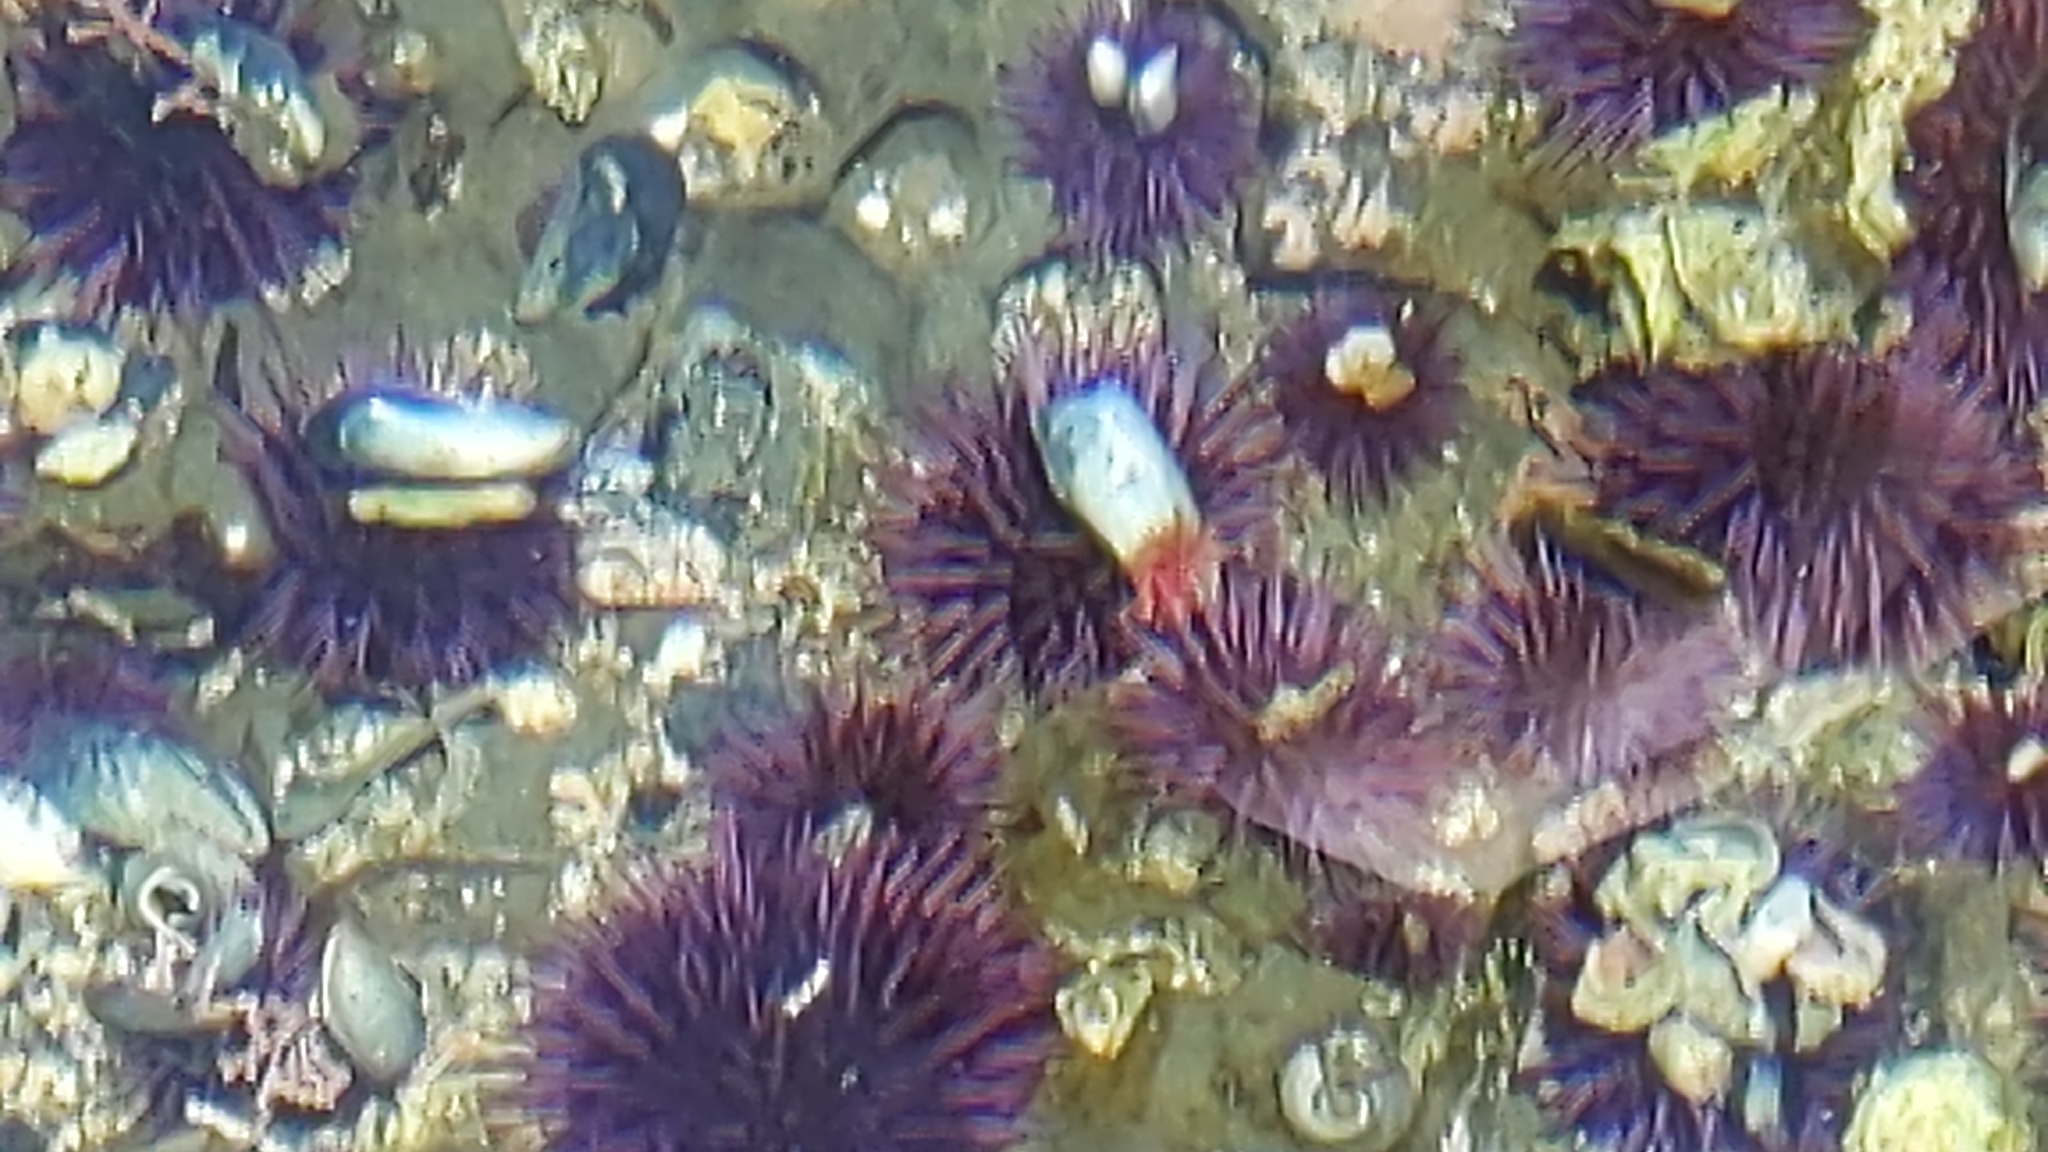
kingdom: Animalia
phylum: Mollusca
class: Gastropoda
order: Nudibranchia
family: Goniodorididae
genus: Okenia
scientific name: Okenia
